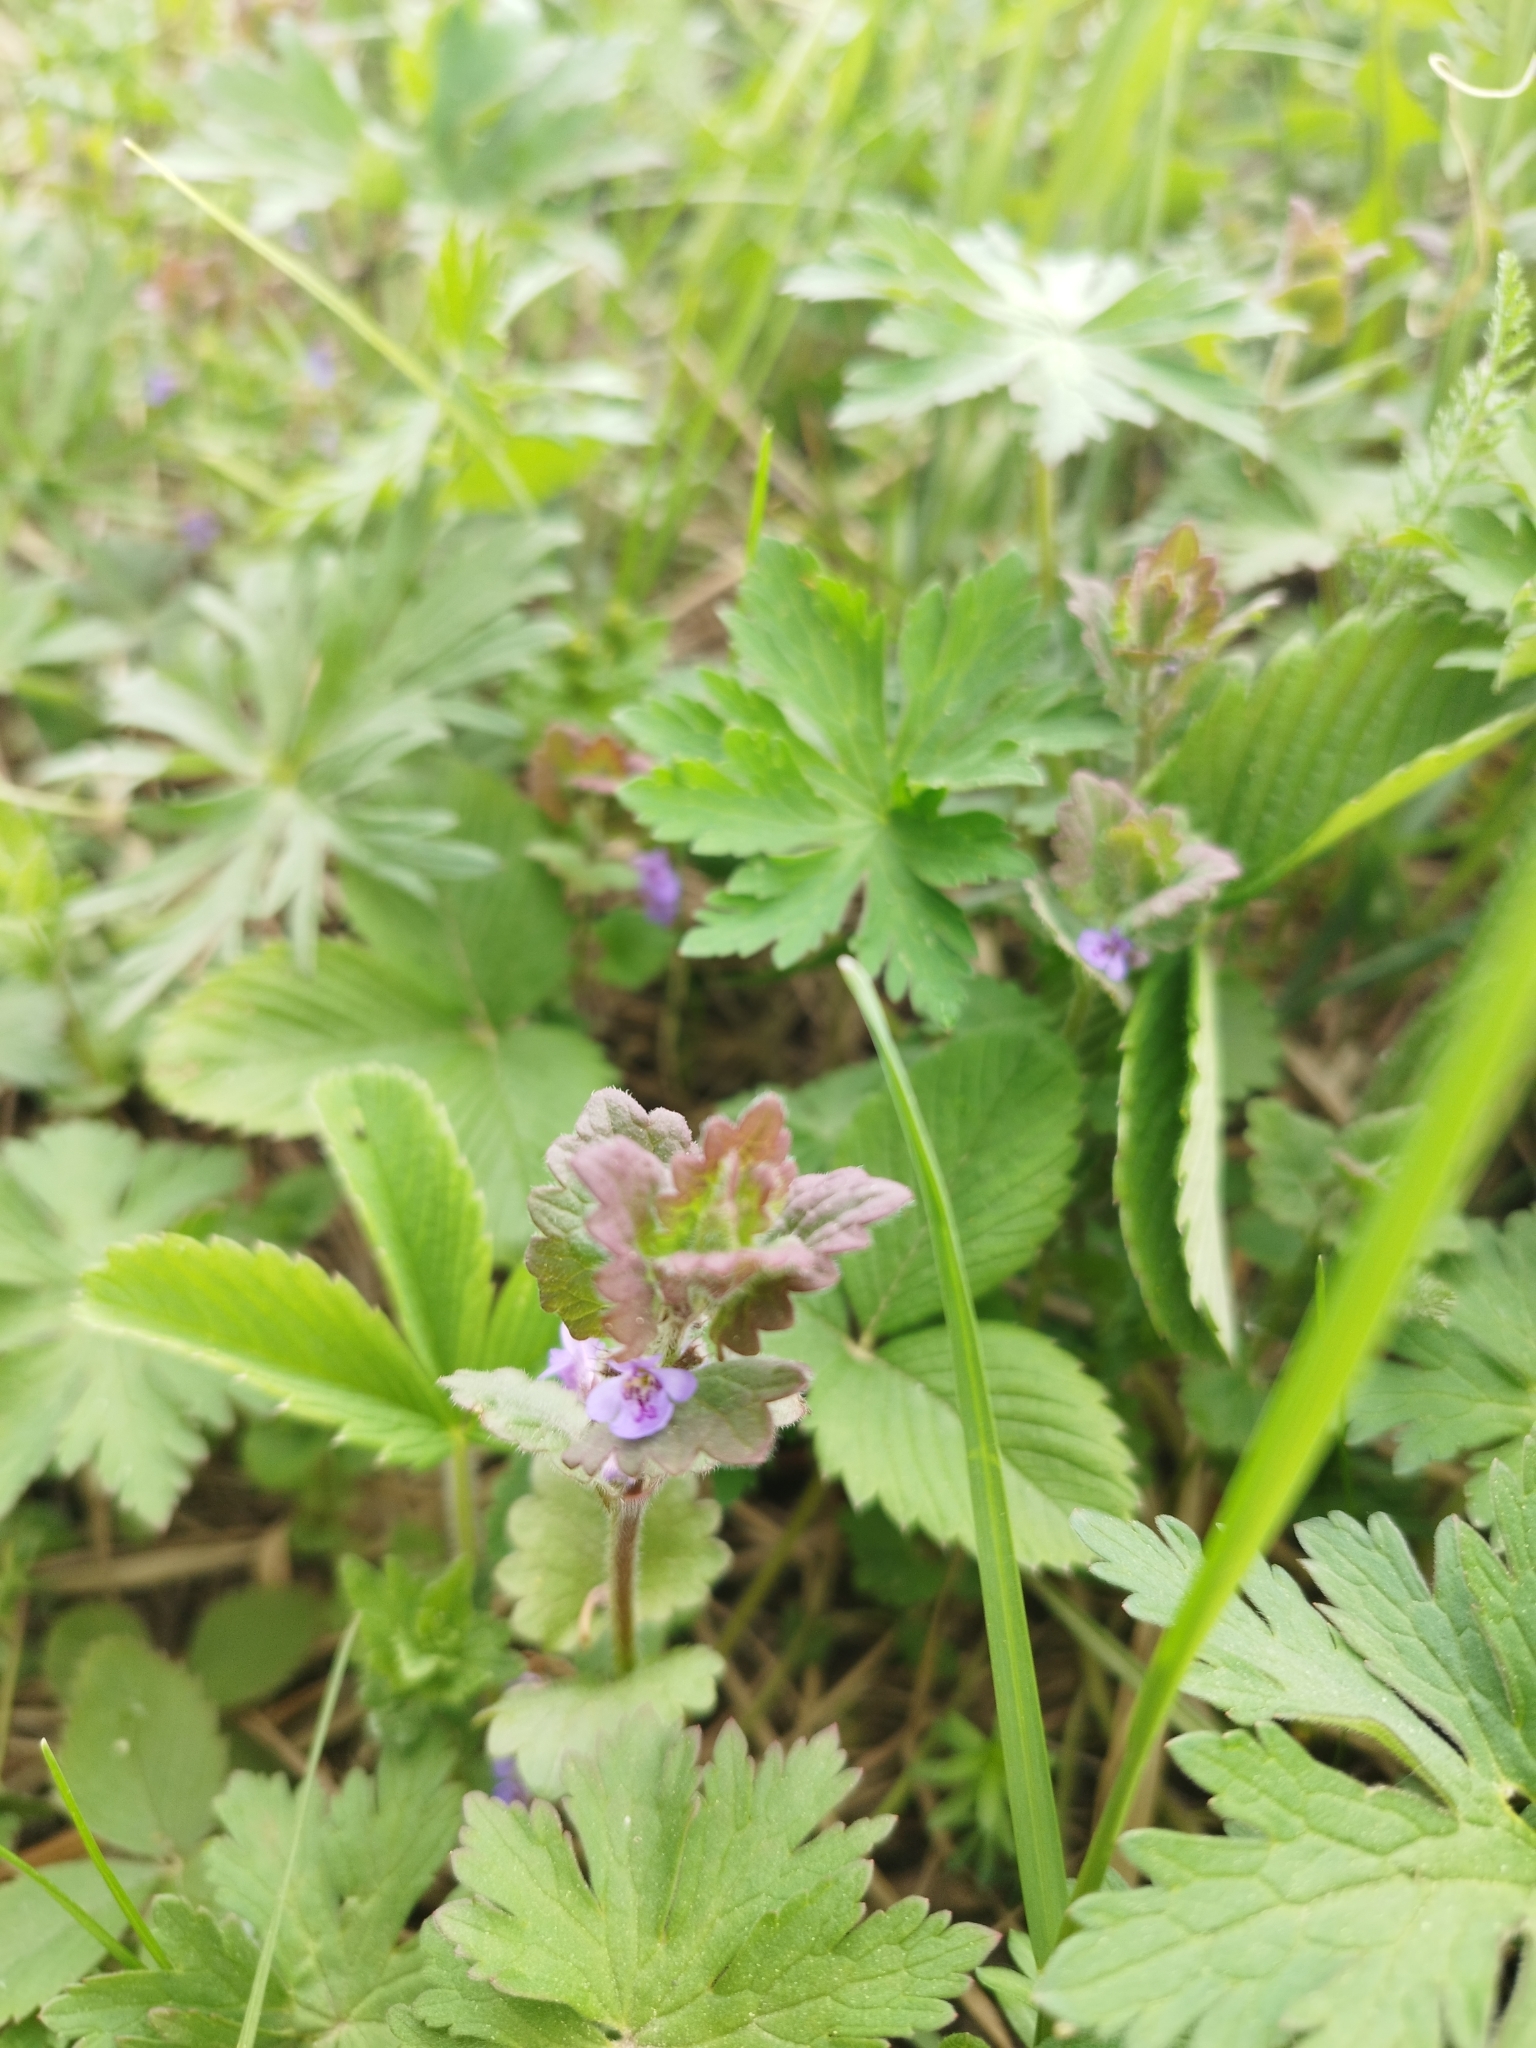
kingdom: Plantae
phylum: Tracheophyta
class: Magnoliopsida
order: Lamiales
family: Lamiaceae
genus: Glechoma
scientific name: Glechoma hederacea
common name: Ground ivy
